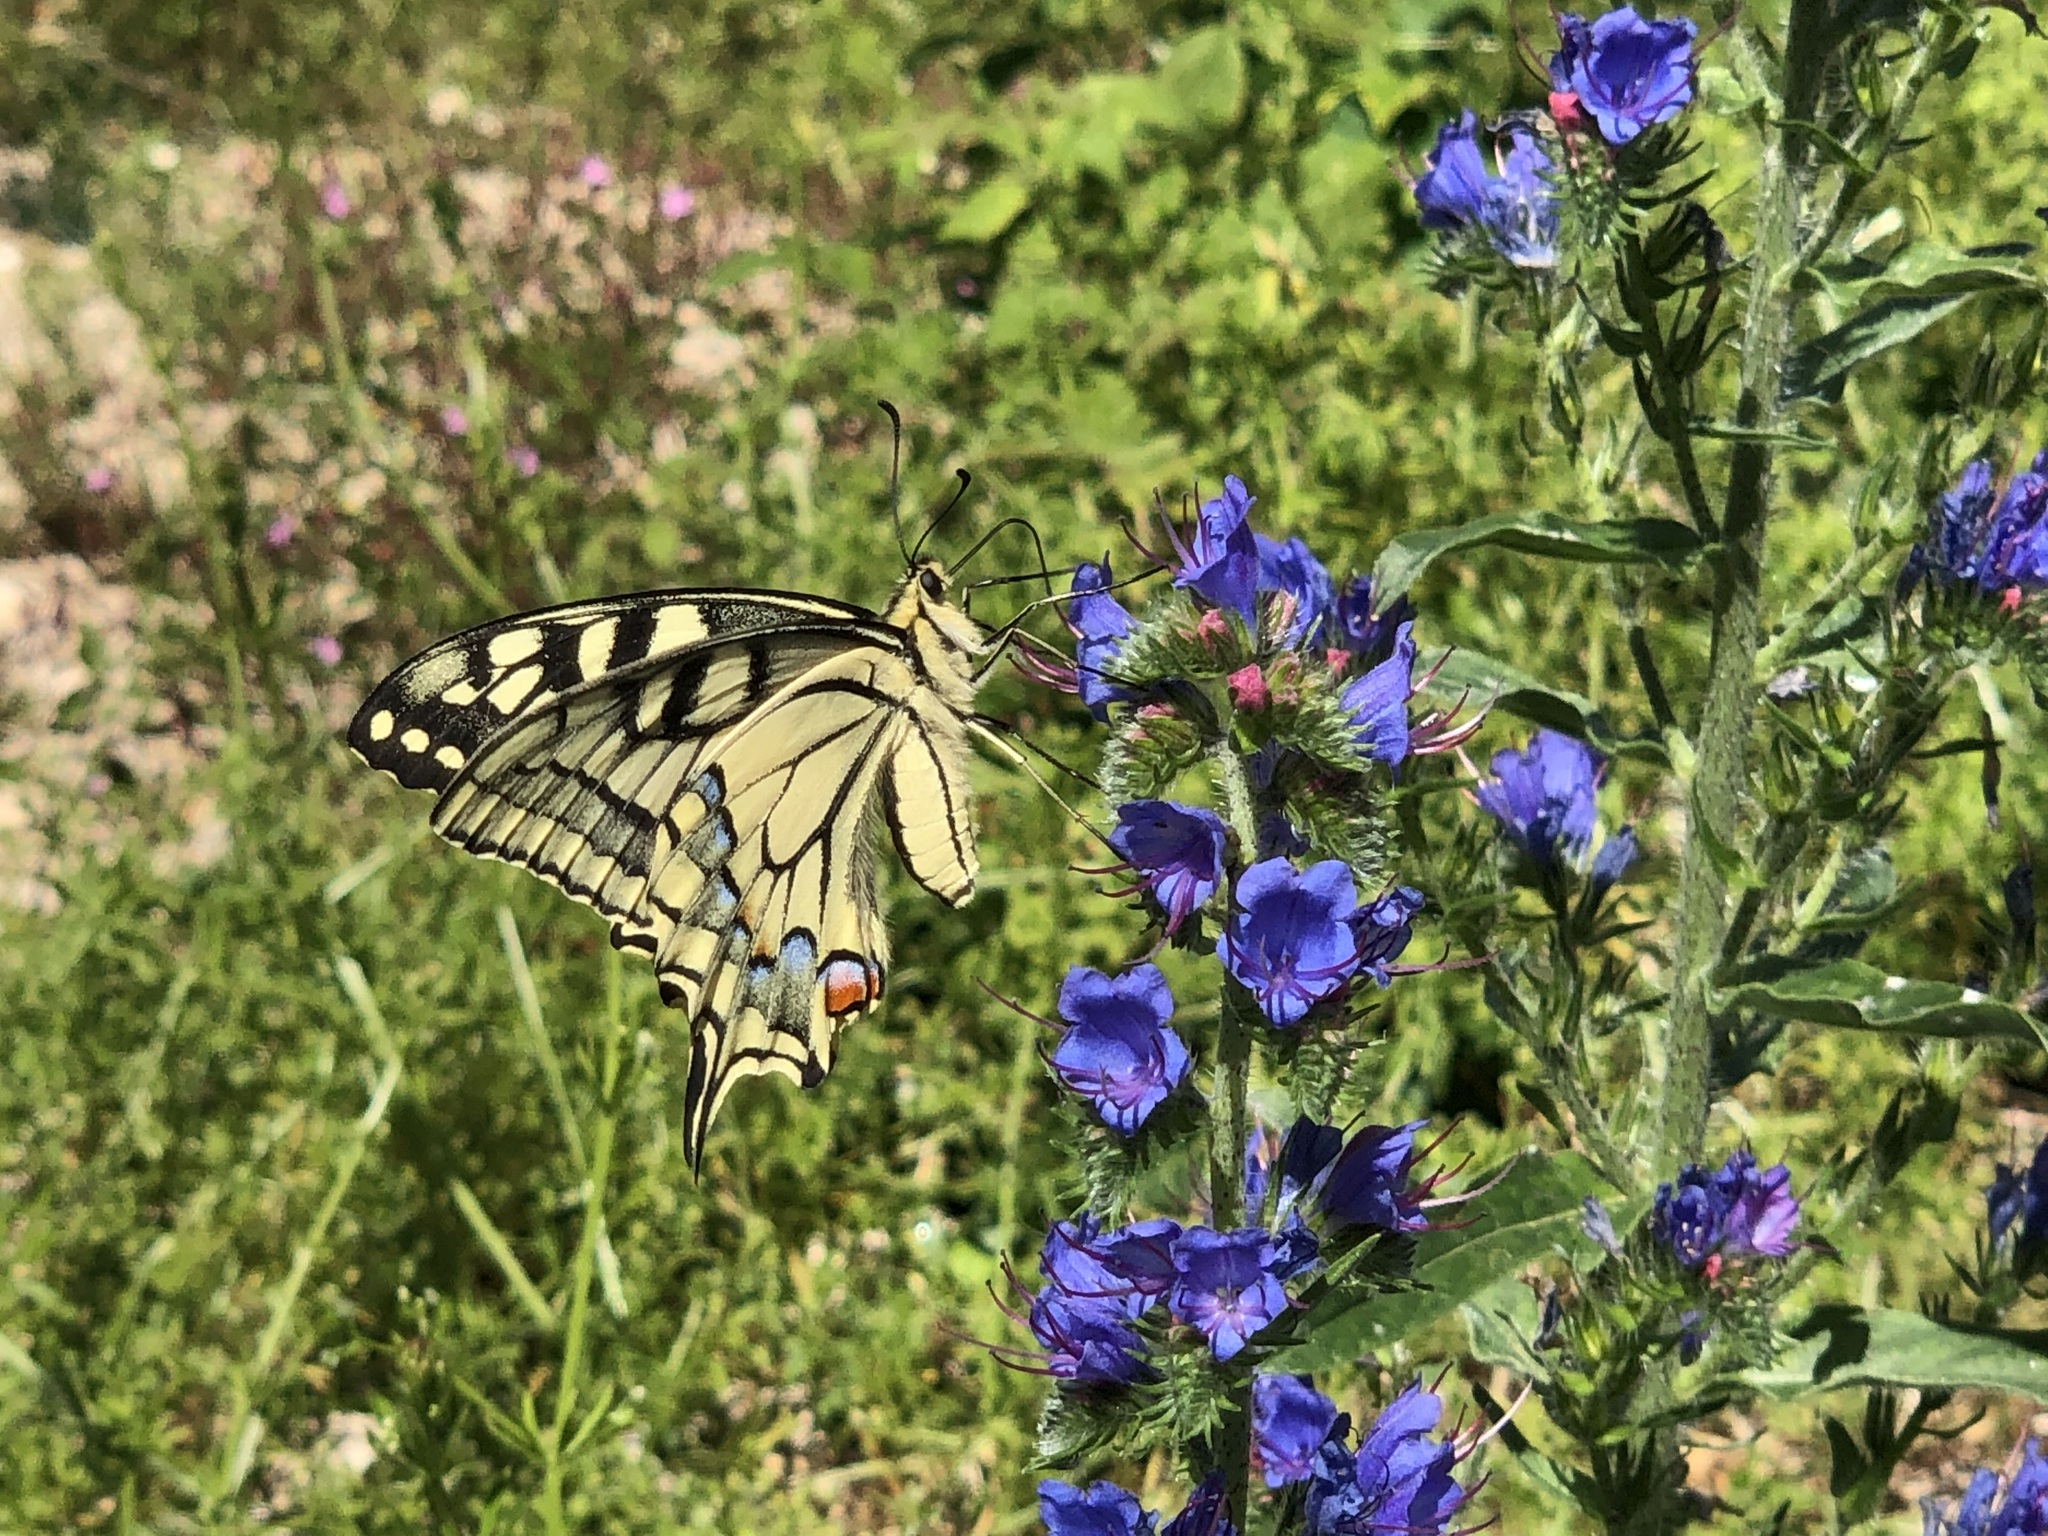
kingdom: Animalia
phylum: Arthropoda
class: Insecta
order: Lepidoptera
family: Papilionidae
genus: Papilio
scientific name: Papilio machaon
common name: Swallowtail
